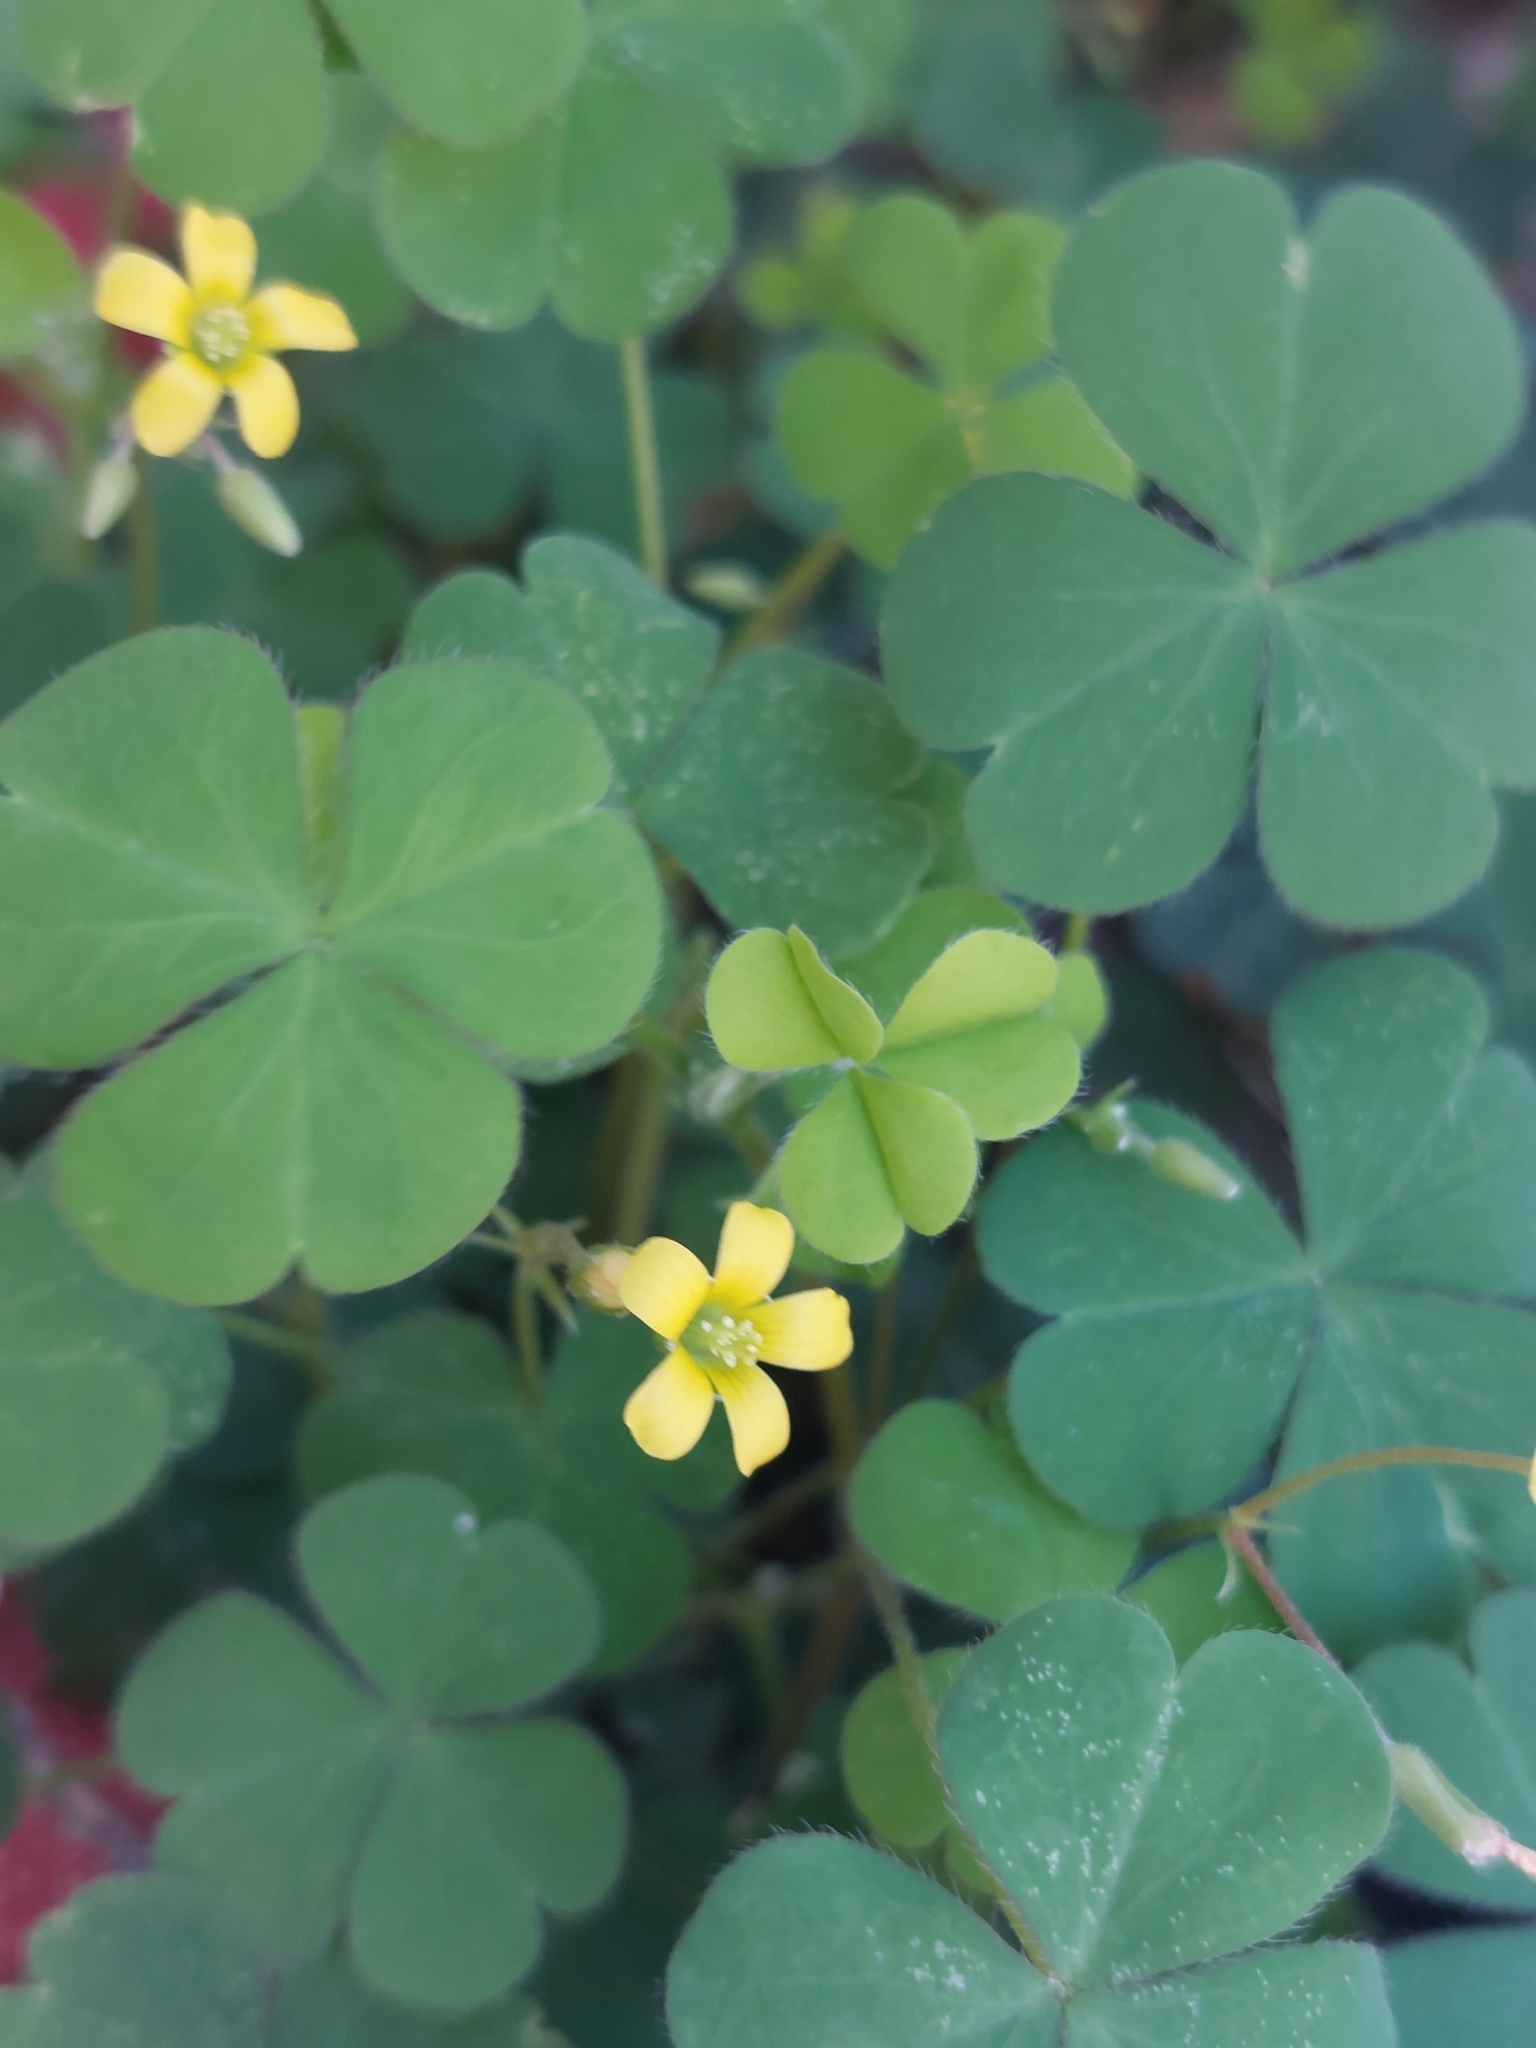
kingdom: Plantae
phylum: Tracheophyta
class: Magnoliopsida
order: Oxalidales
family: Oxalidaceae
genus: Oxalis
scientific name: Oxalis corniculata
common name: Procumbent yellow-sorrel
